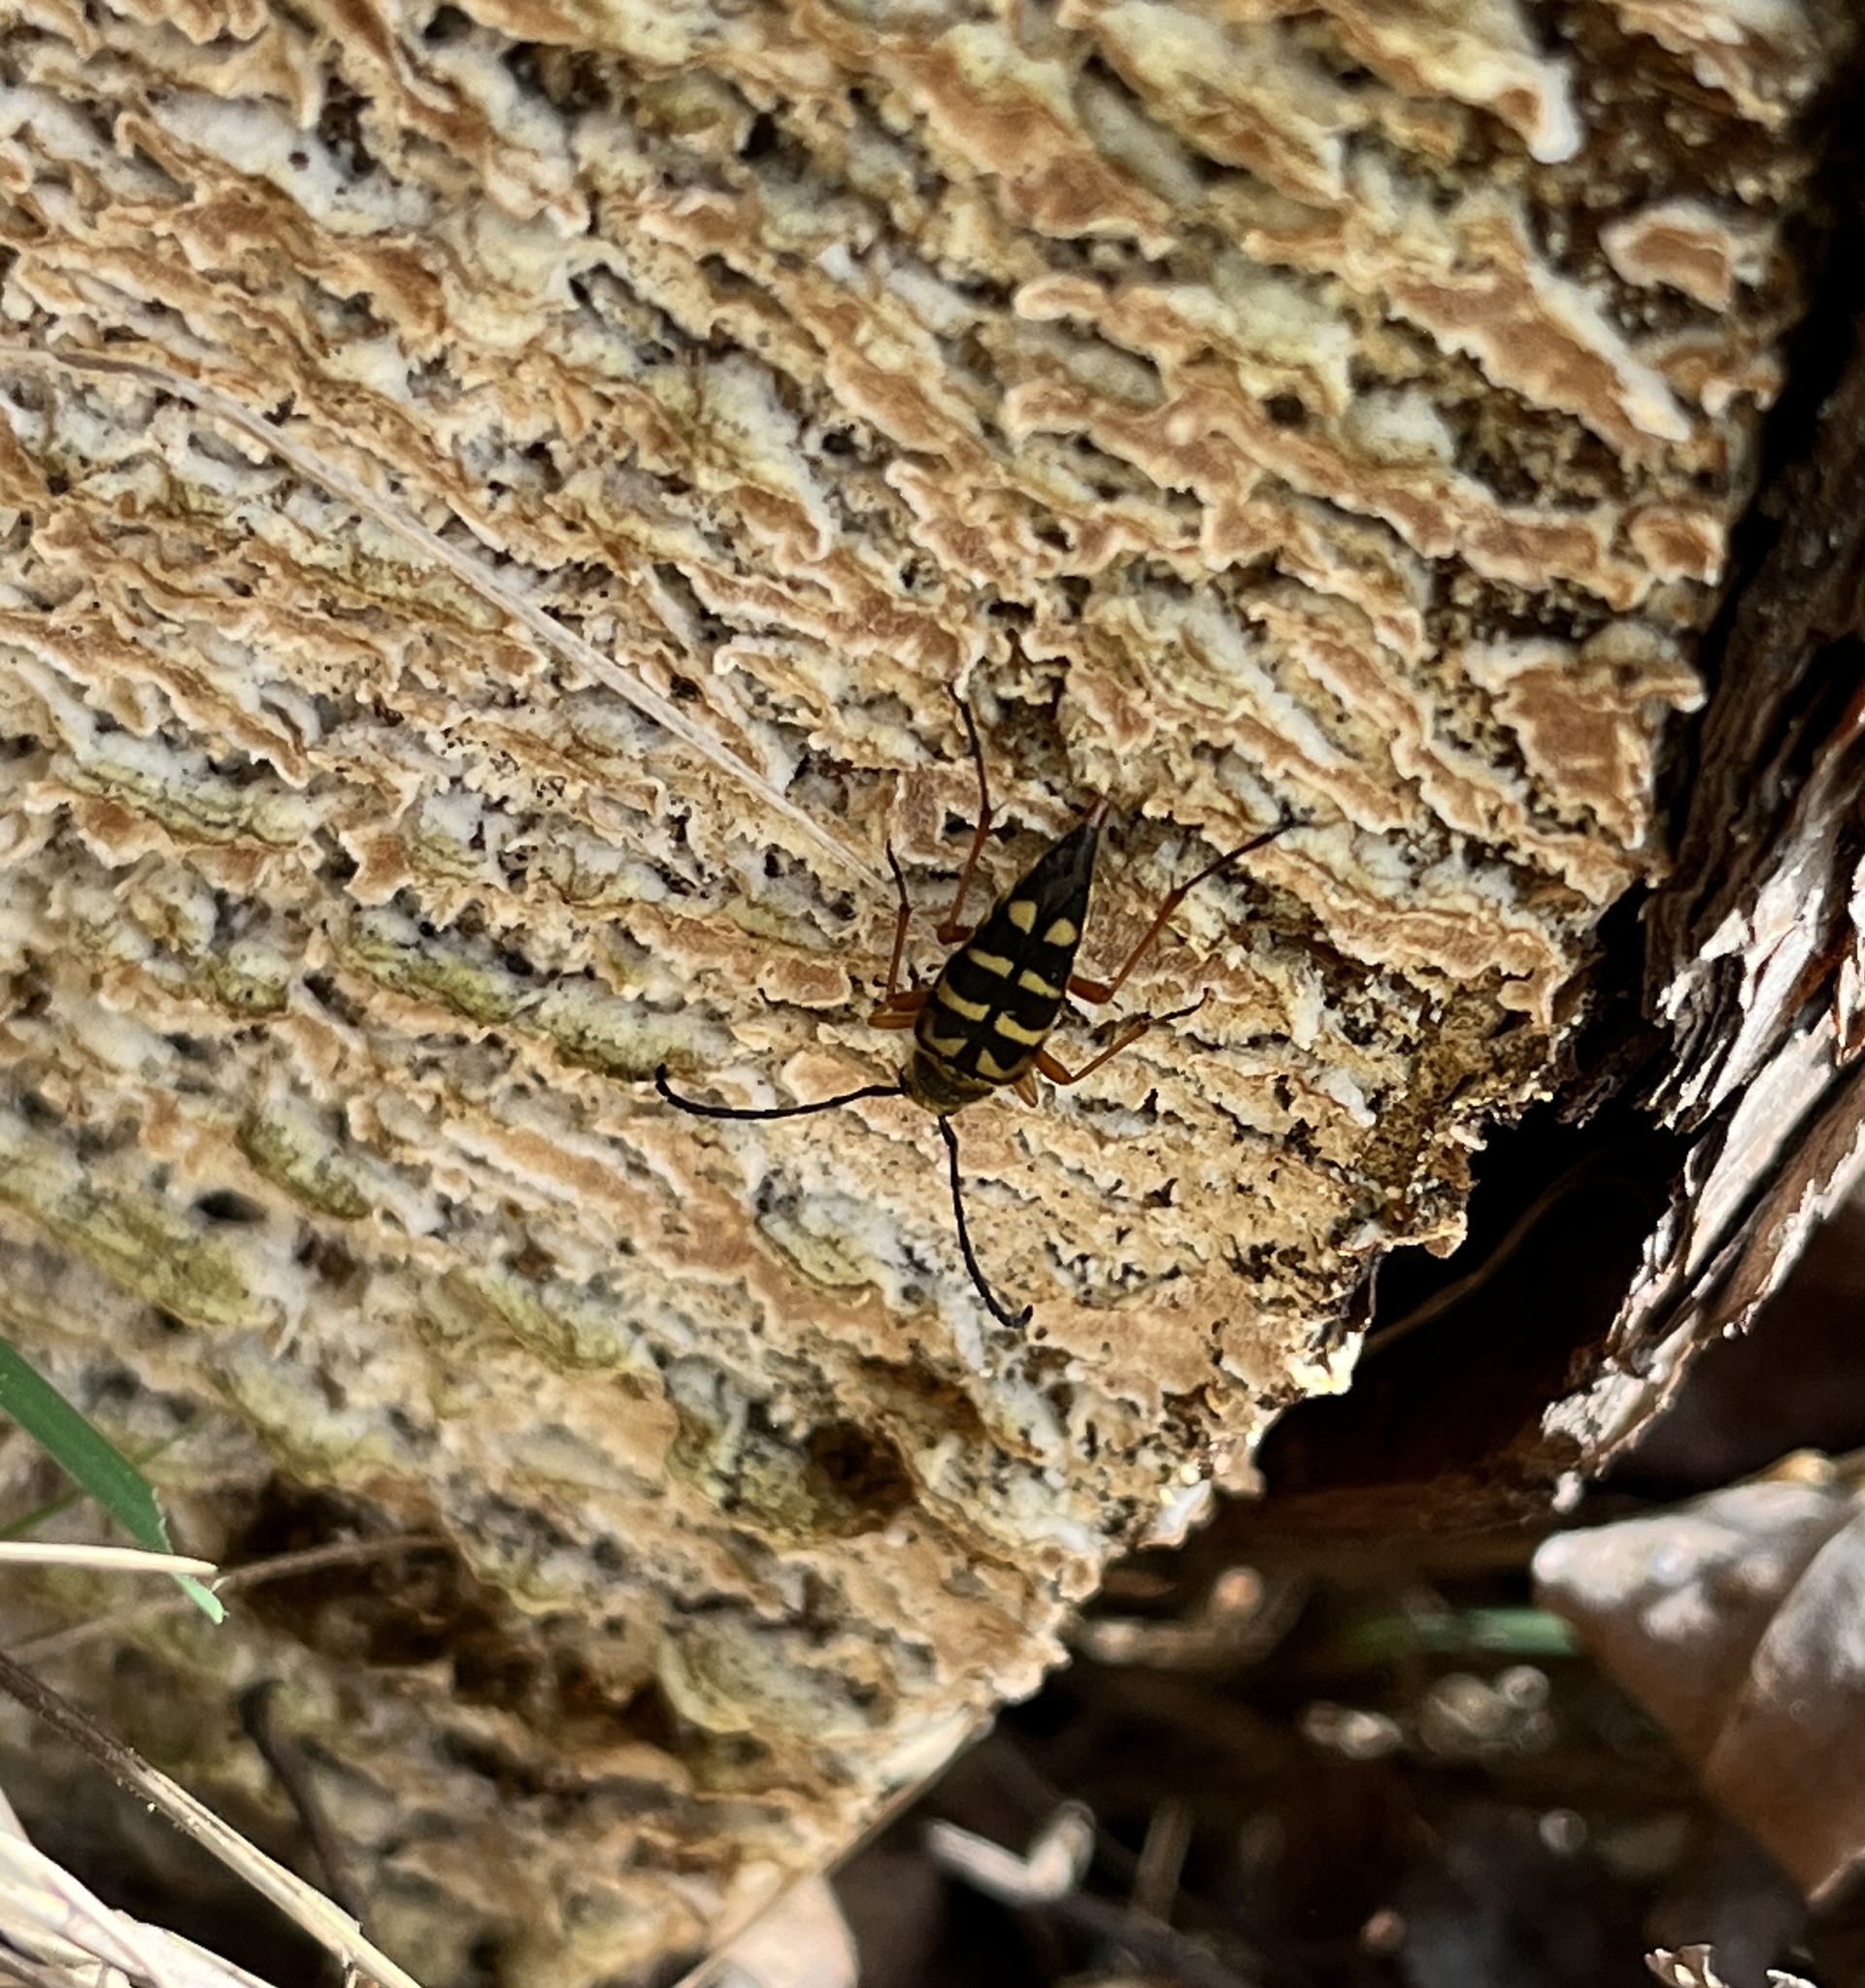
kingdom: Animalia
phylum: Arthropoda
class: Insecta
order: Coleoptera
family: Cerambycidae
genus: Typocerus
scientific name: Typocerus zebra
